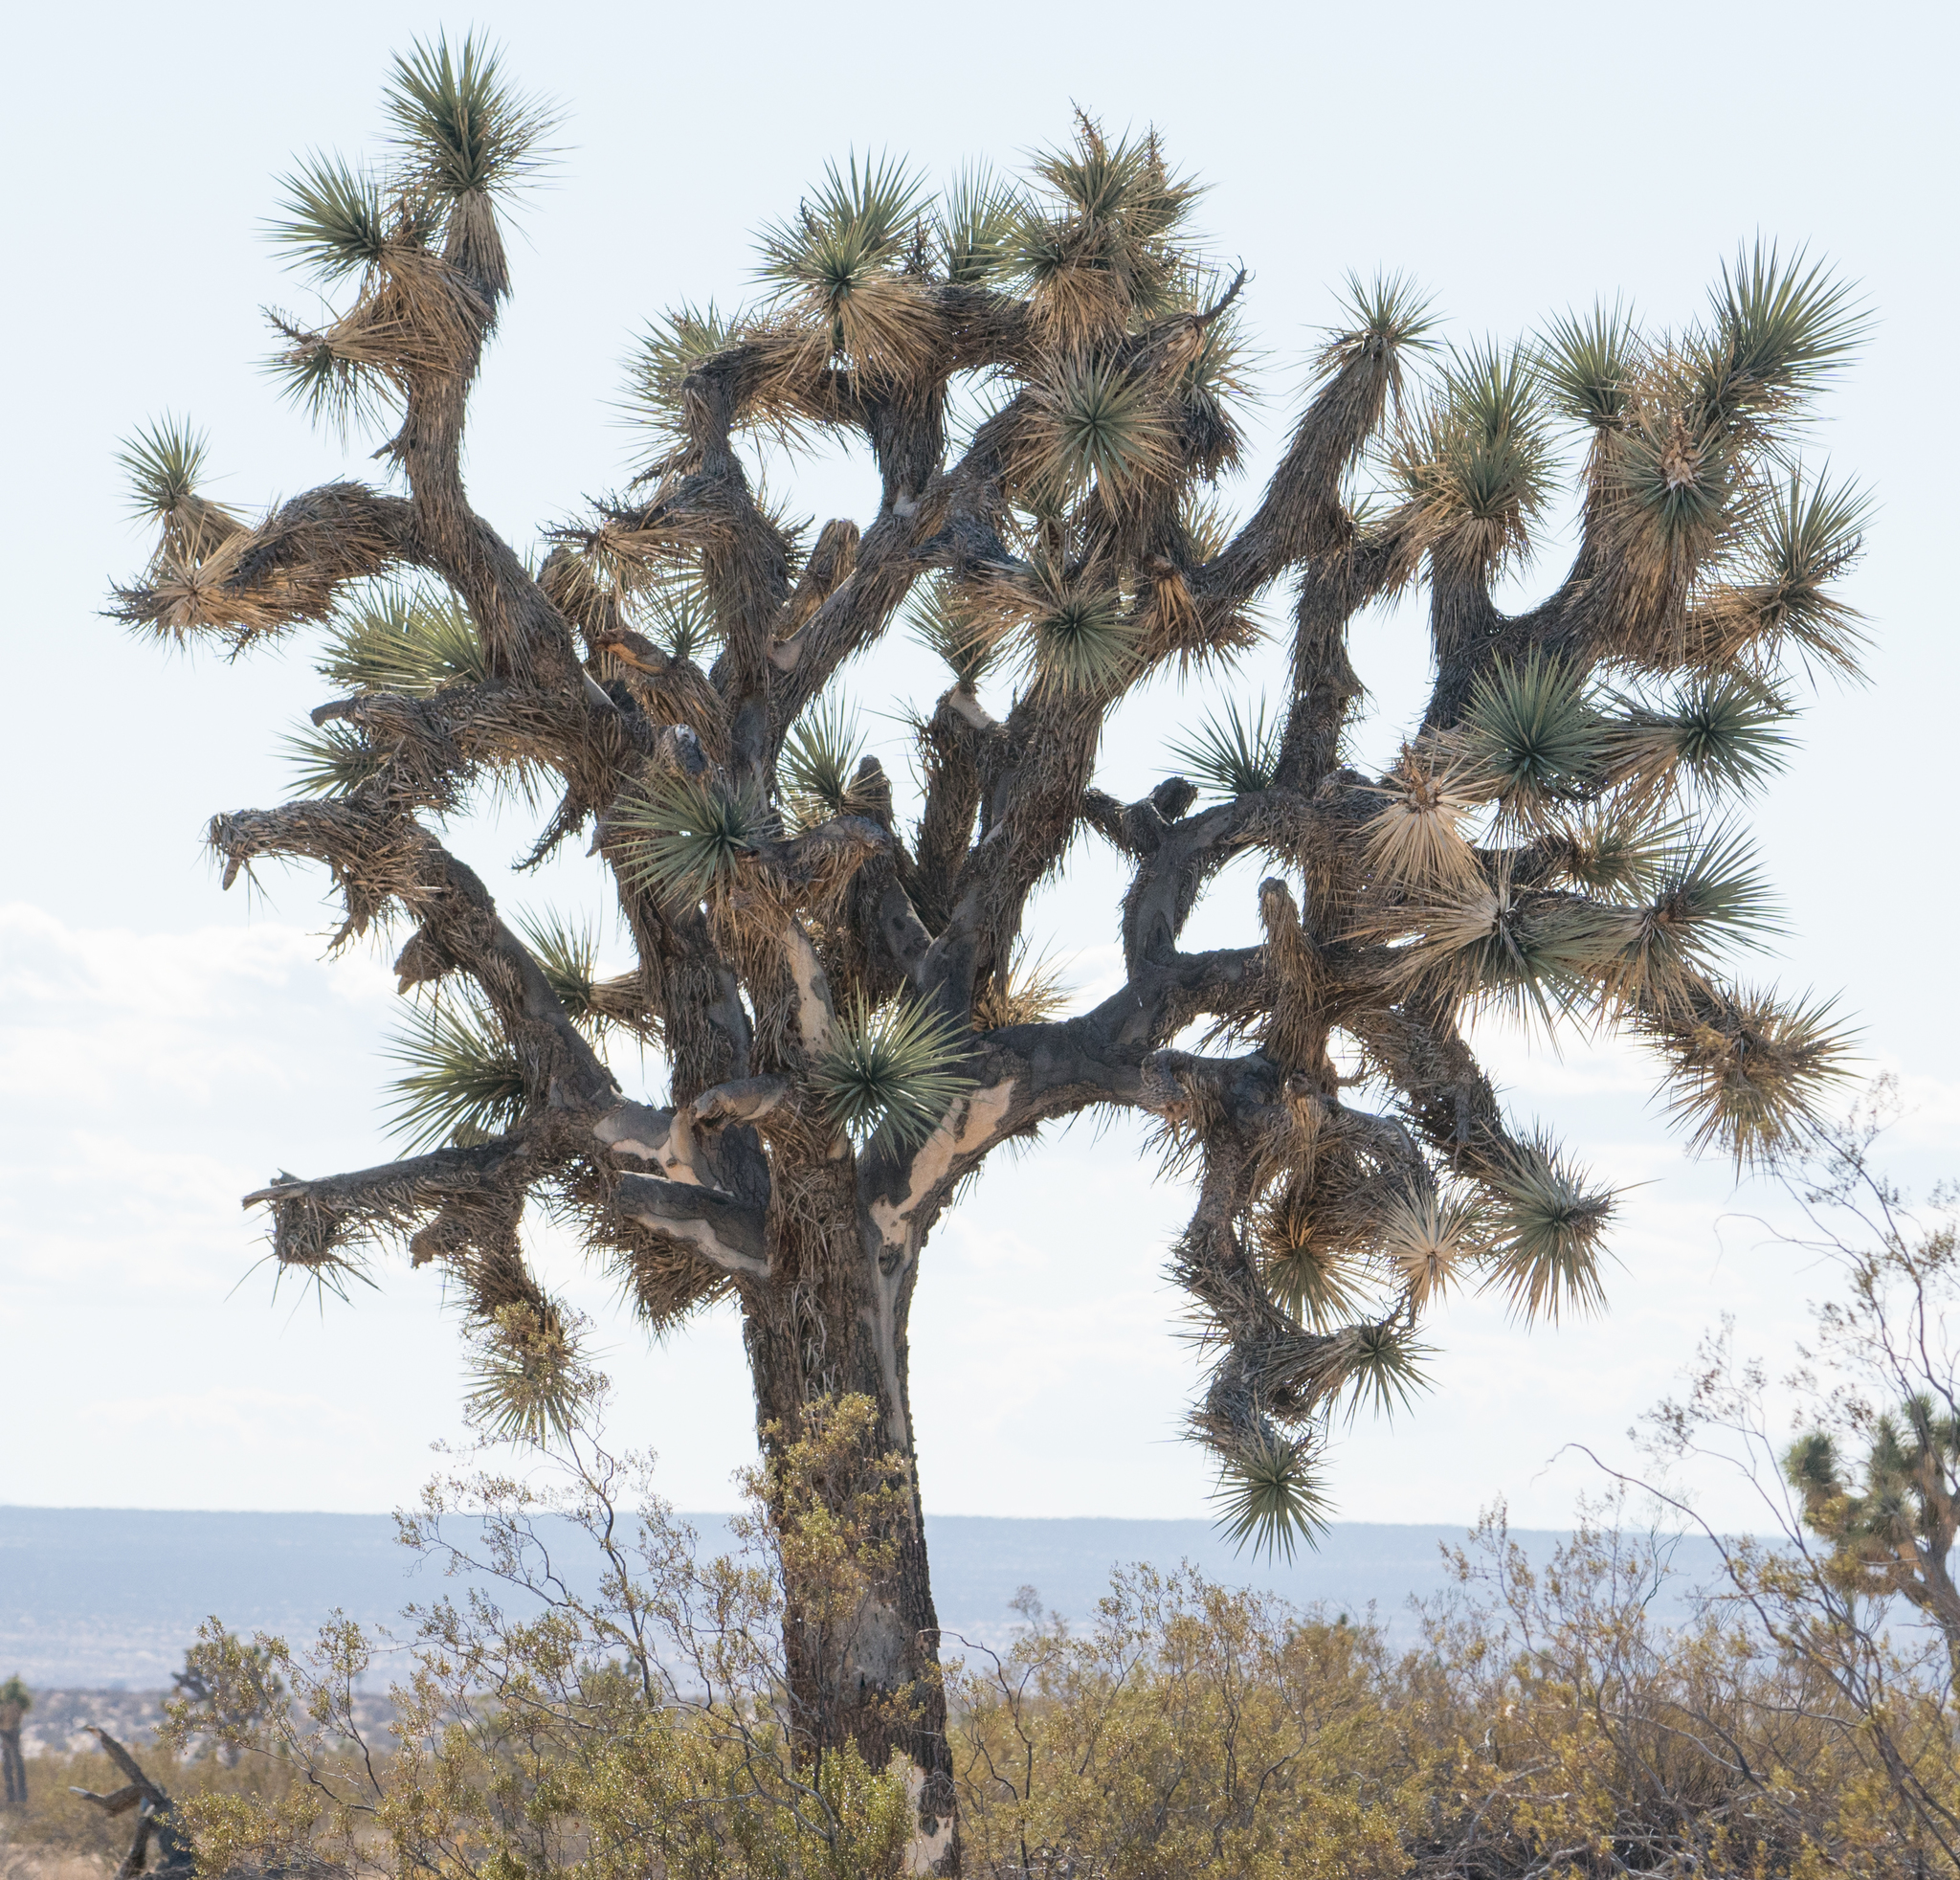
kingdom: Plantae
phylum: Tracheophyta
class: Liliopsida
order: Asparagales
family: Asparagaceae
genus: Yucca
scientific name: Yucca brevifolia
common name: Joshua tree
